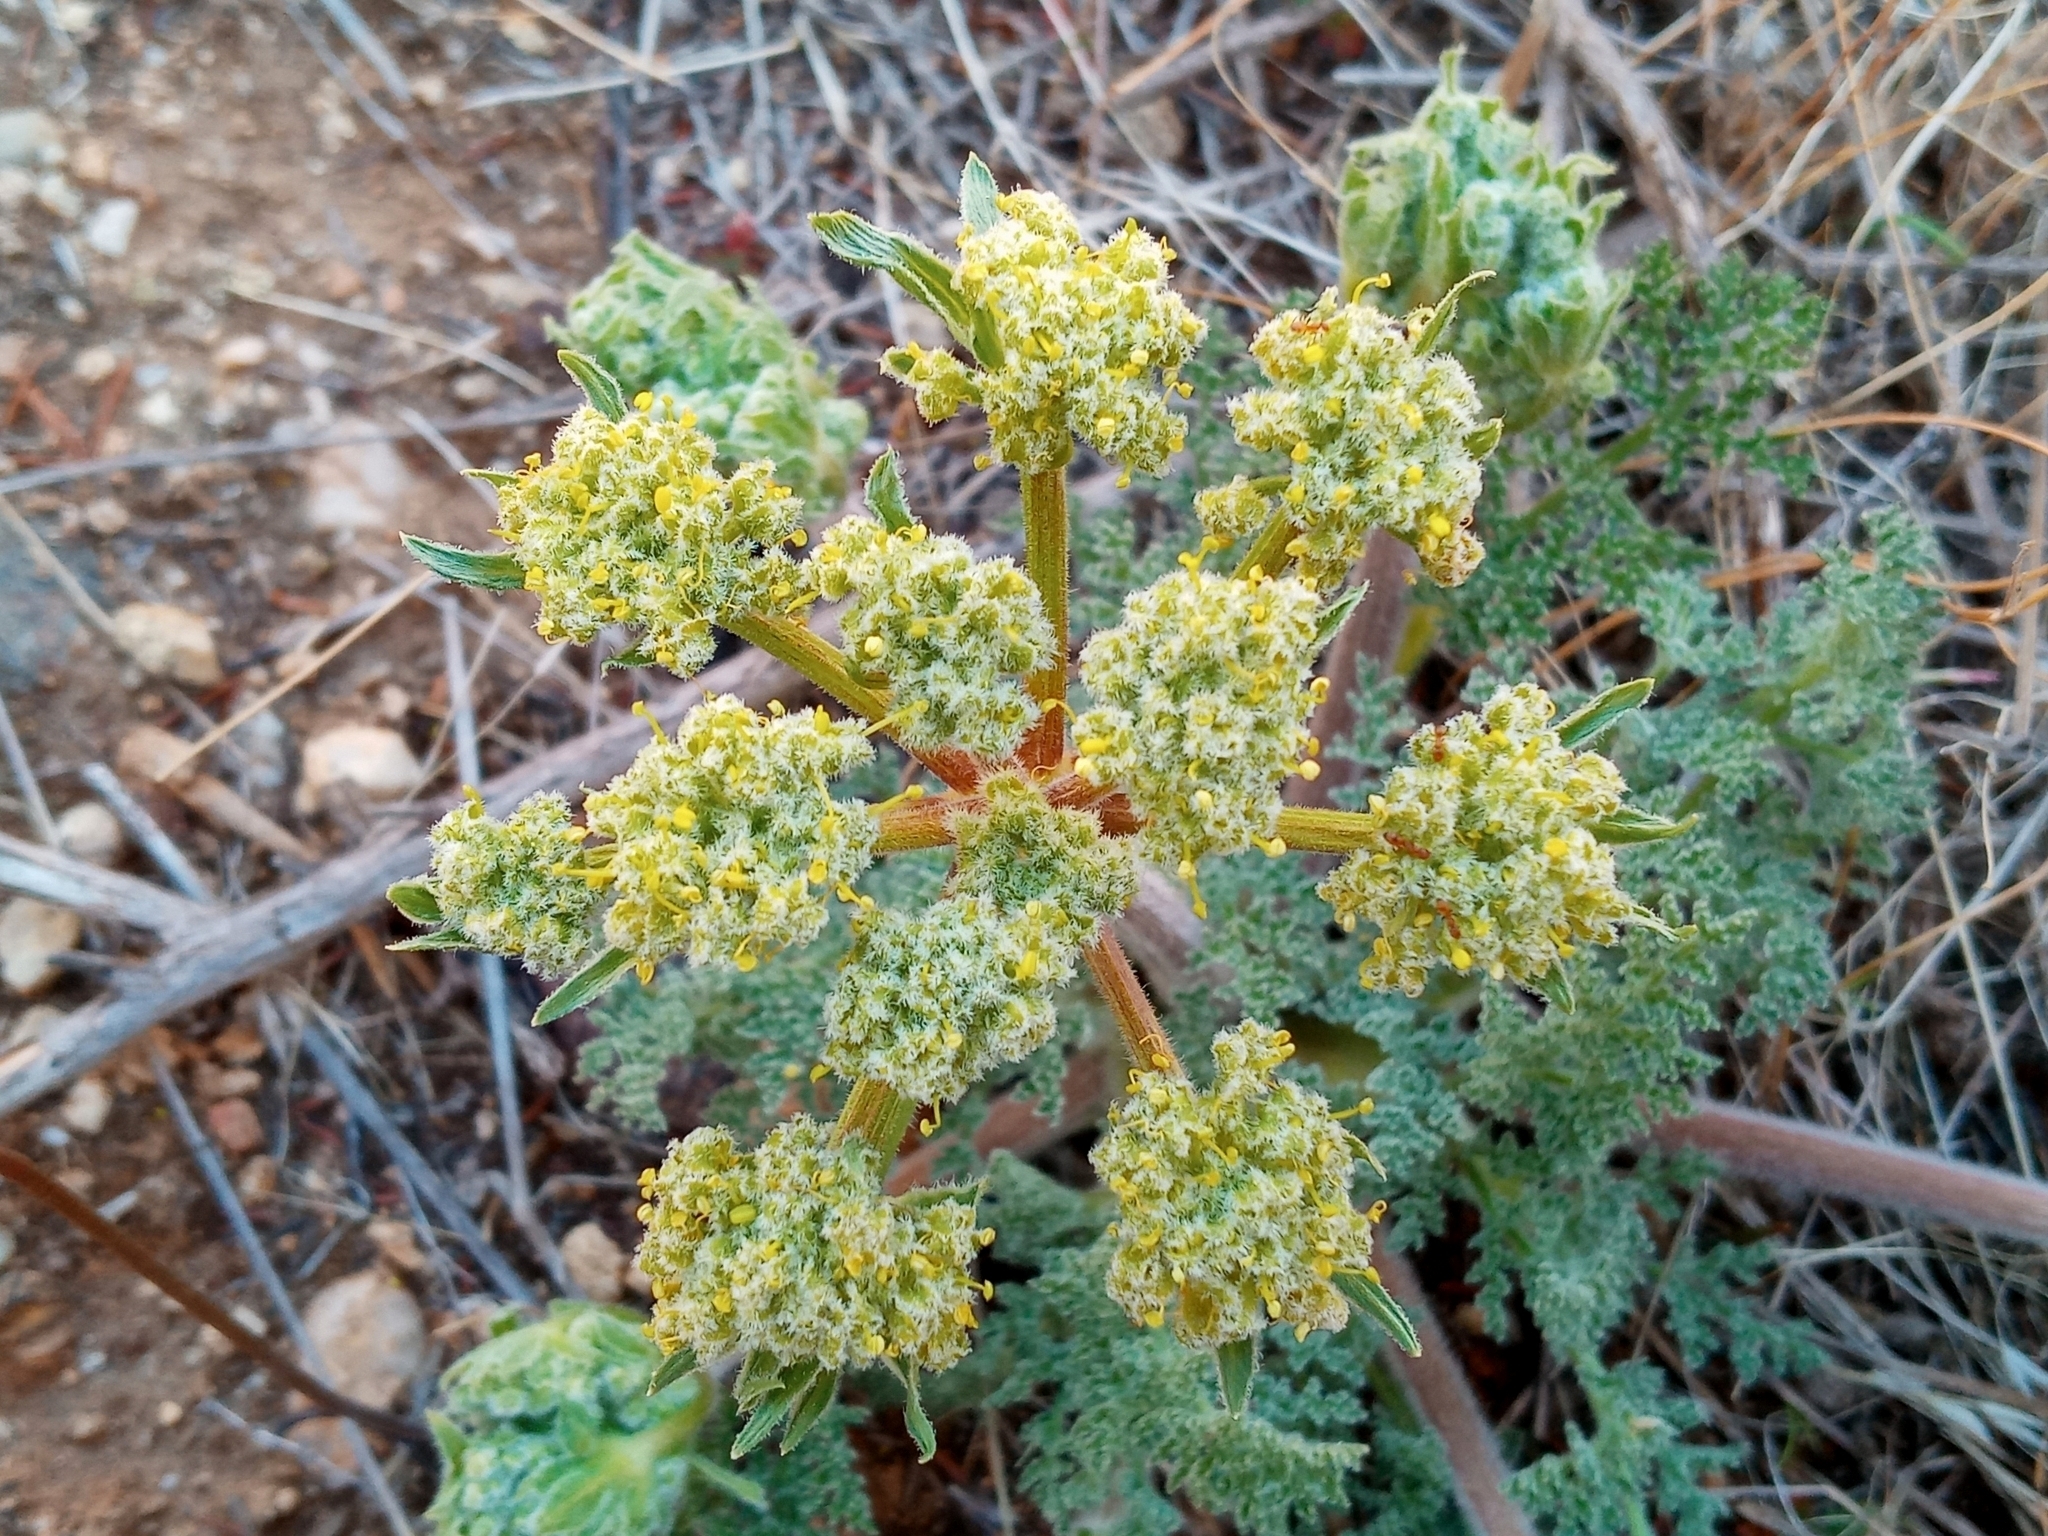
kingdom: Plantae
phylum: Tracheophyta
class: Magnoliopsida
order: Apiales
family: Apiaceae
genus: Lomatium
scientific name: Lomatium dasycarpum
